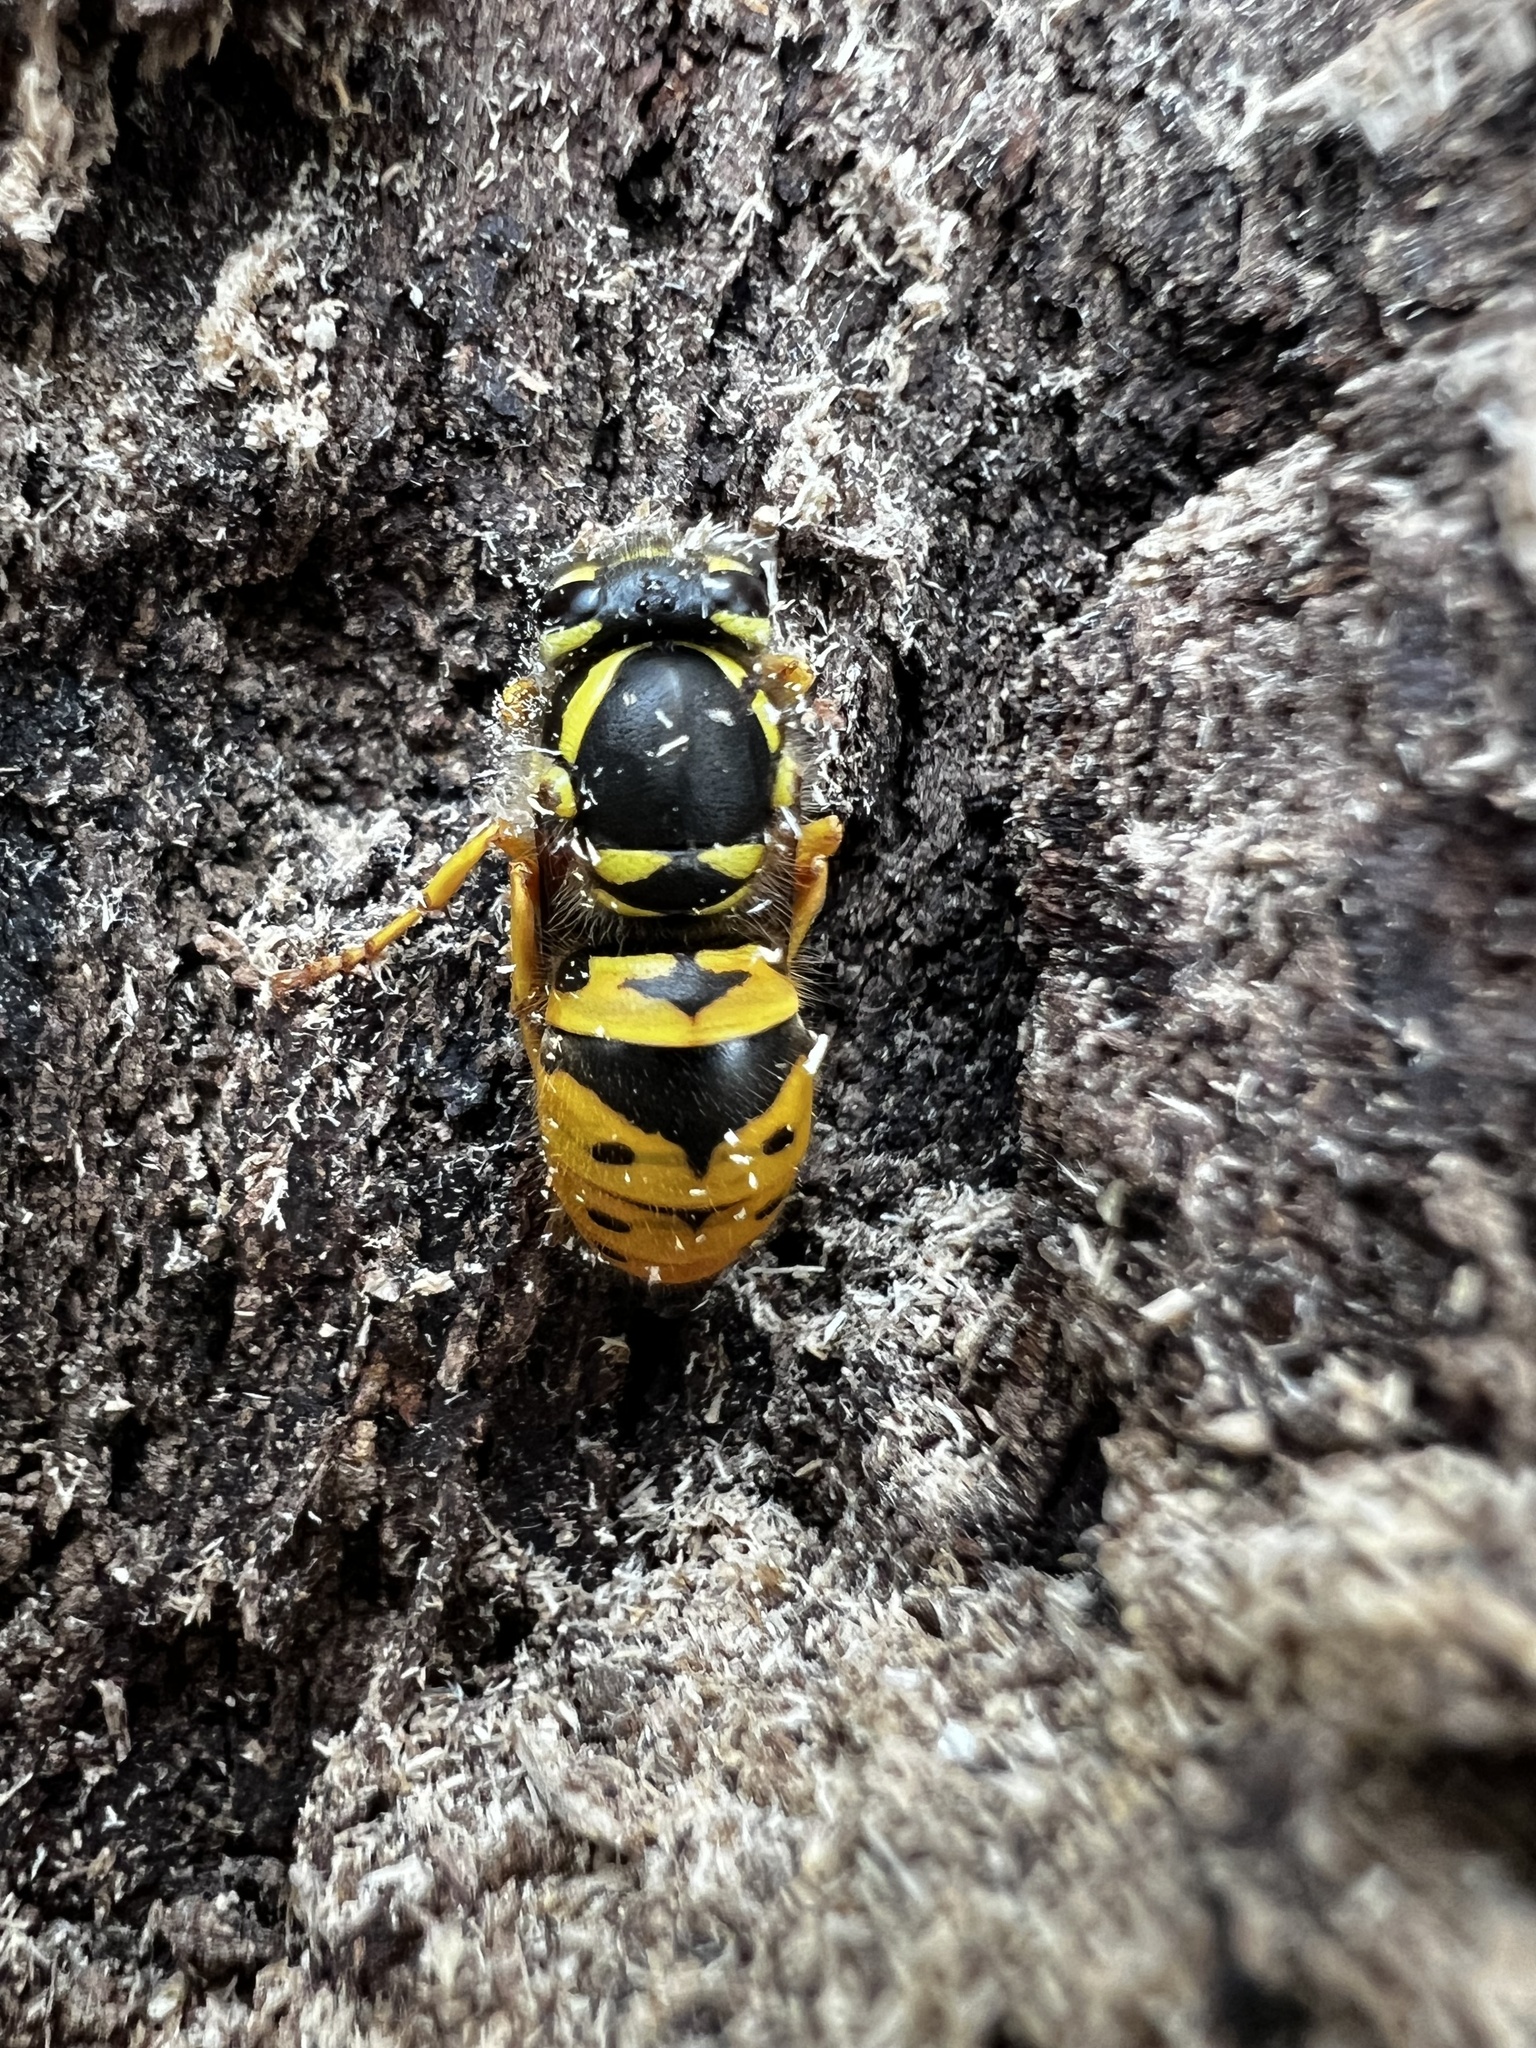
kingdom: Animalia
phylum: Arthropoda
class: Insecta
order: Hymenoptera
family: Vespidae
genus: Vespula
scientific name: Vespula maculifrons
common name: Eastern yellowjacket
